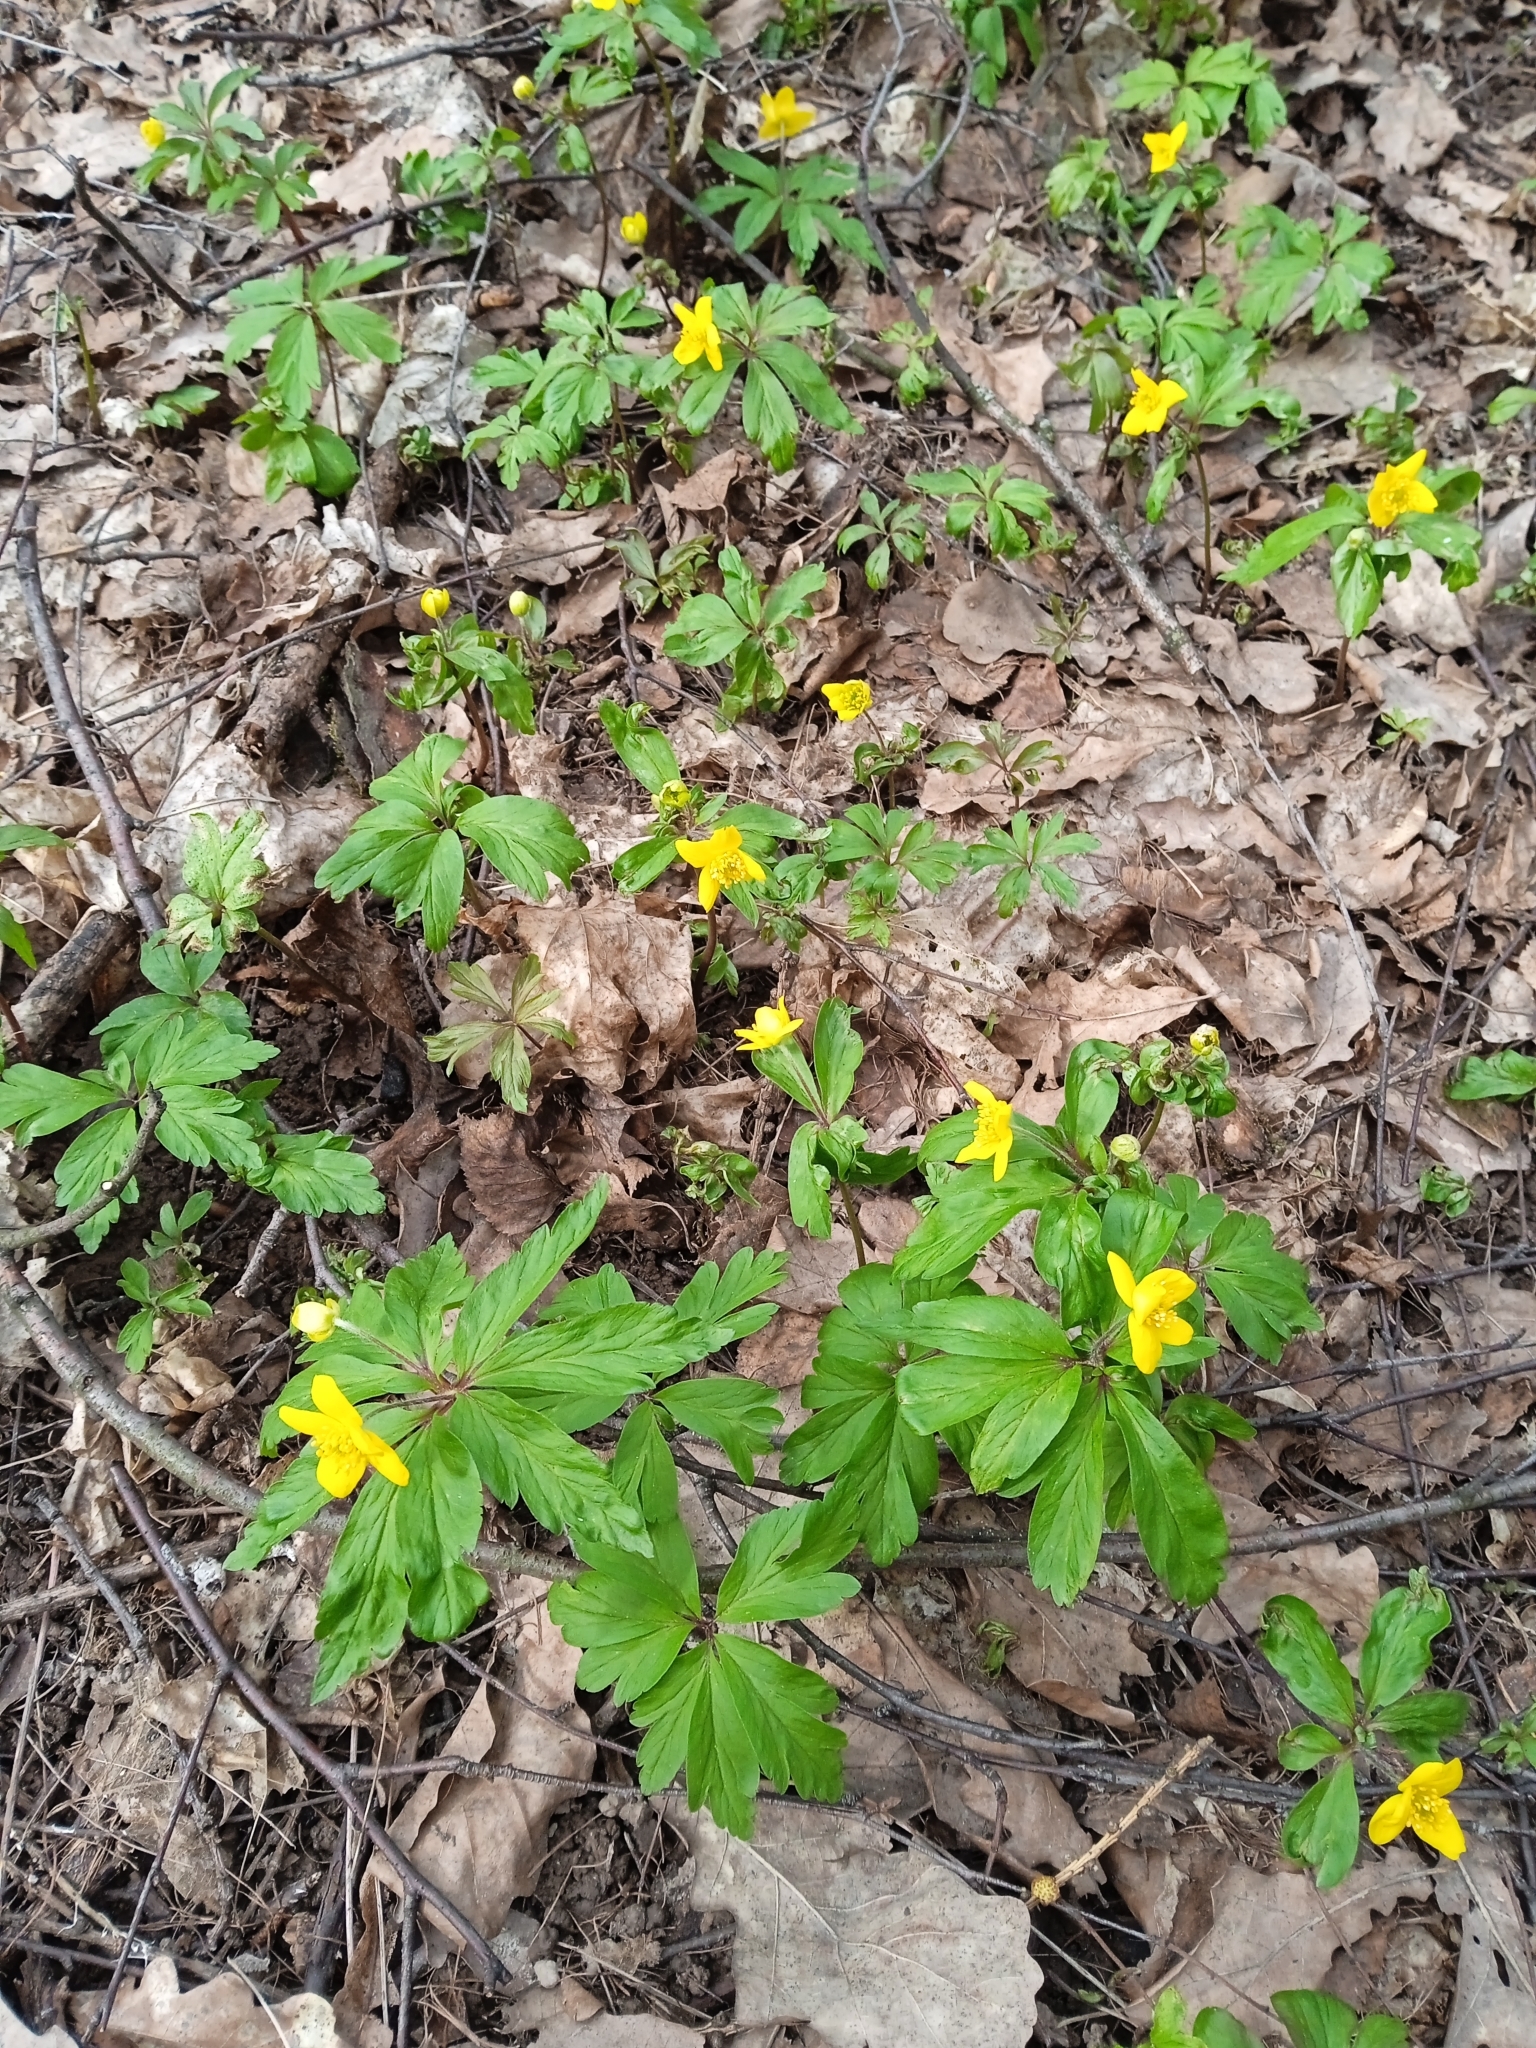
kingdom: Plantae
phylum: Tracheophyta
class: Magnoliopsida
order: Ranunculales
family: Ranunculaceae
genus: Anemone
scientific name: Anemone ranunculoides
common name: Yellow anemone
